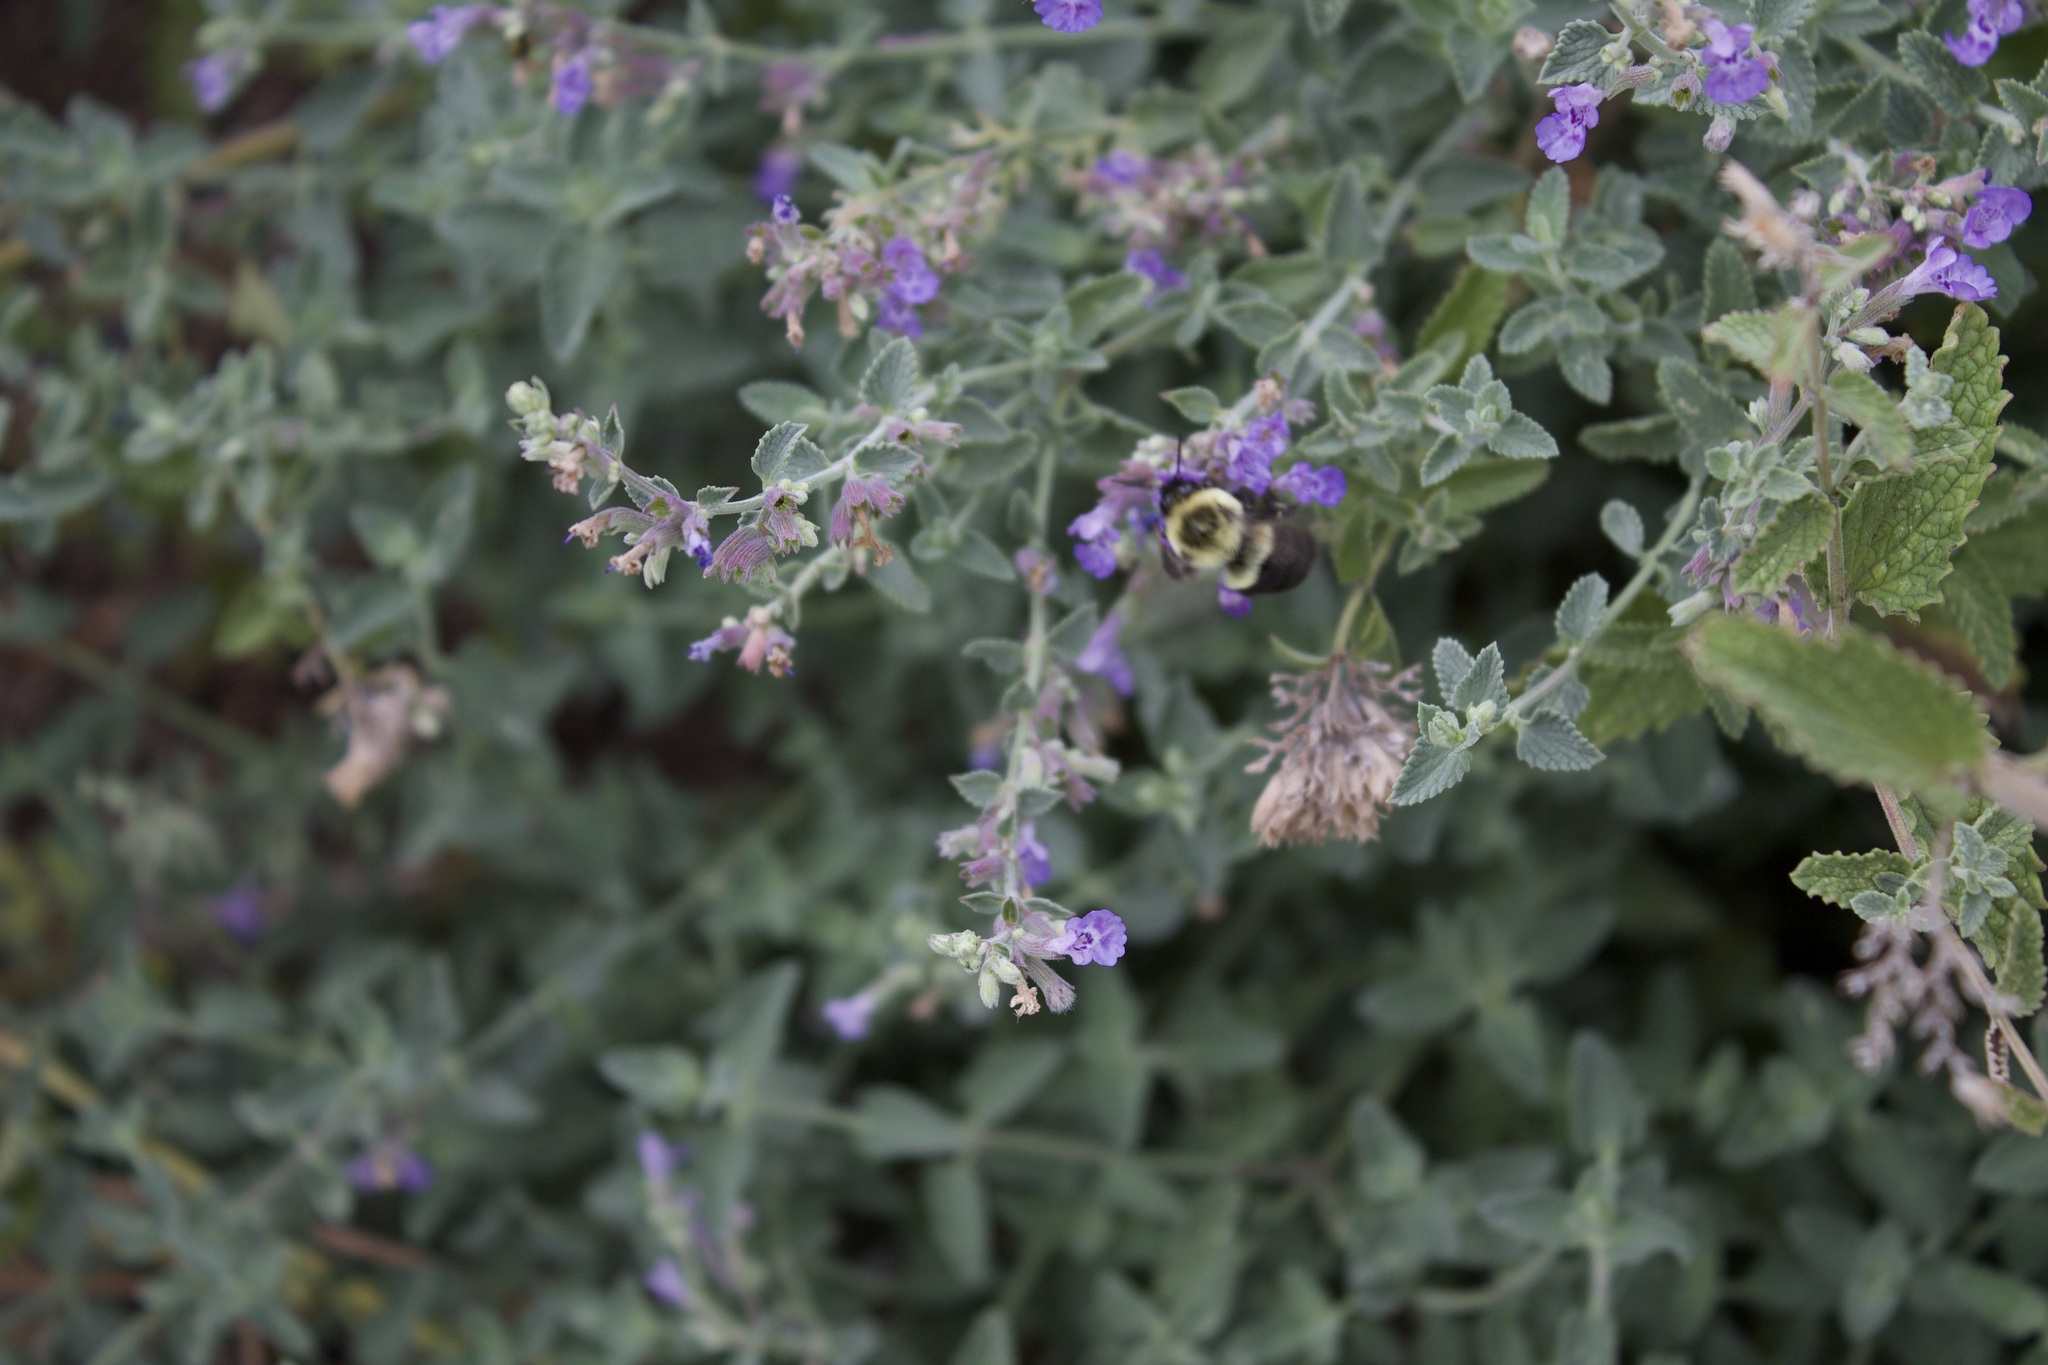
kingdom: Animalia
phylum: Arthropoda
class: Insecta
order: Hymenoptera
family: Apidae
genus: Bombus
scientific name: Bombus impatiens
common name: Common eastern bumble bee
